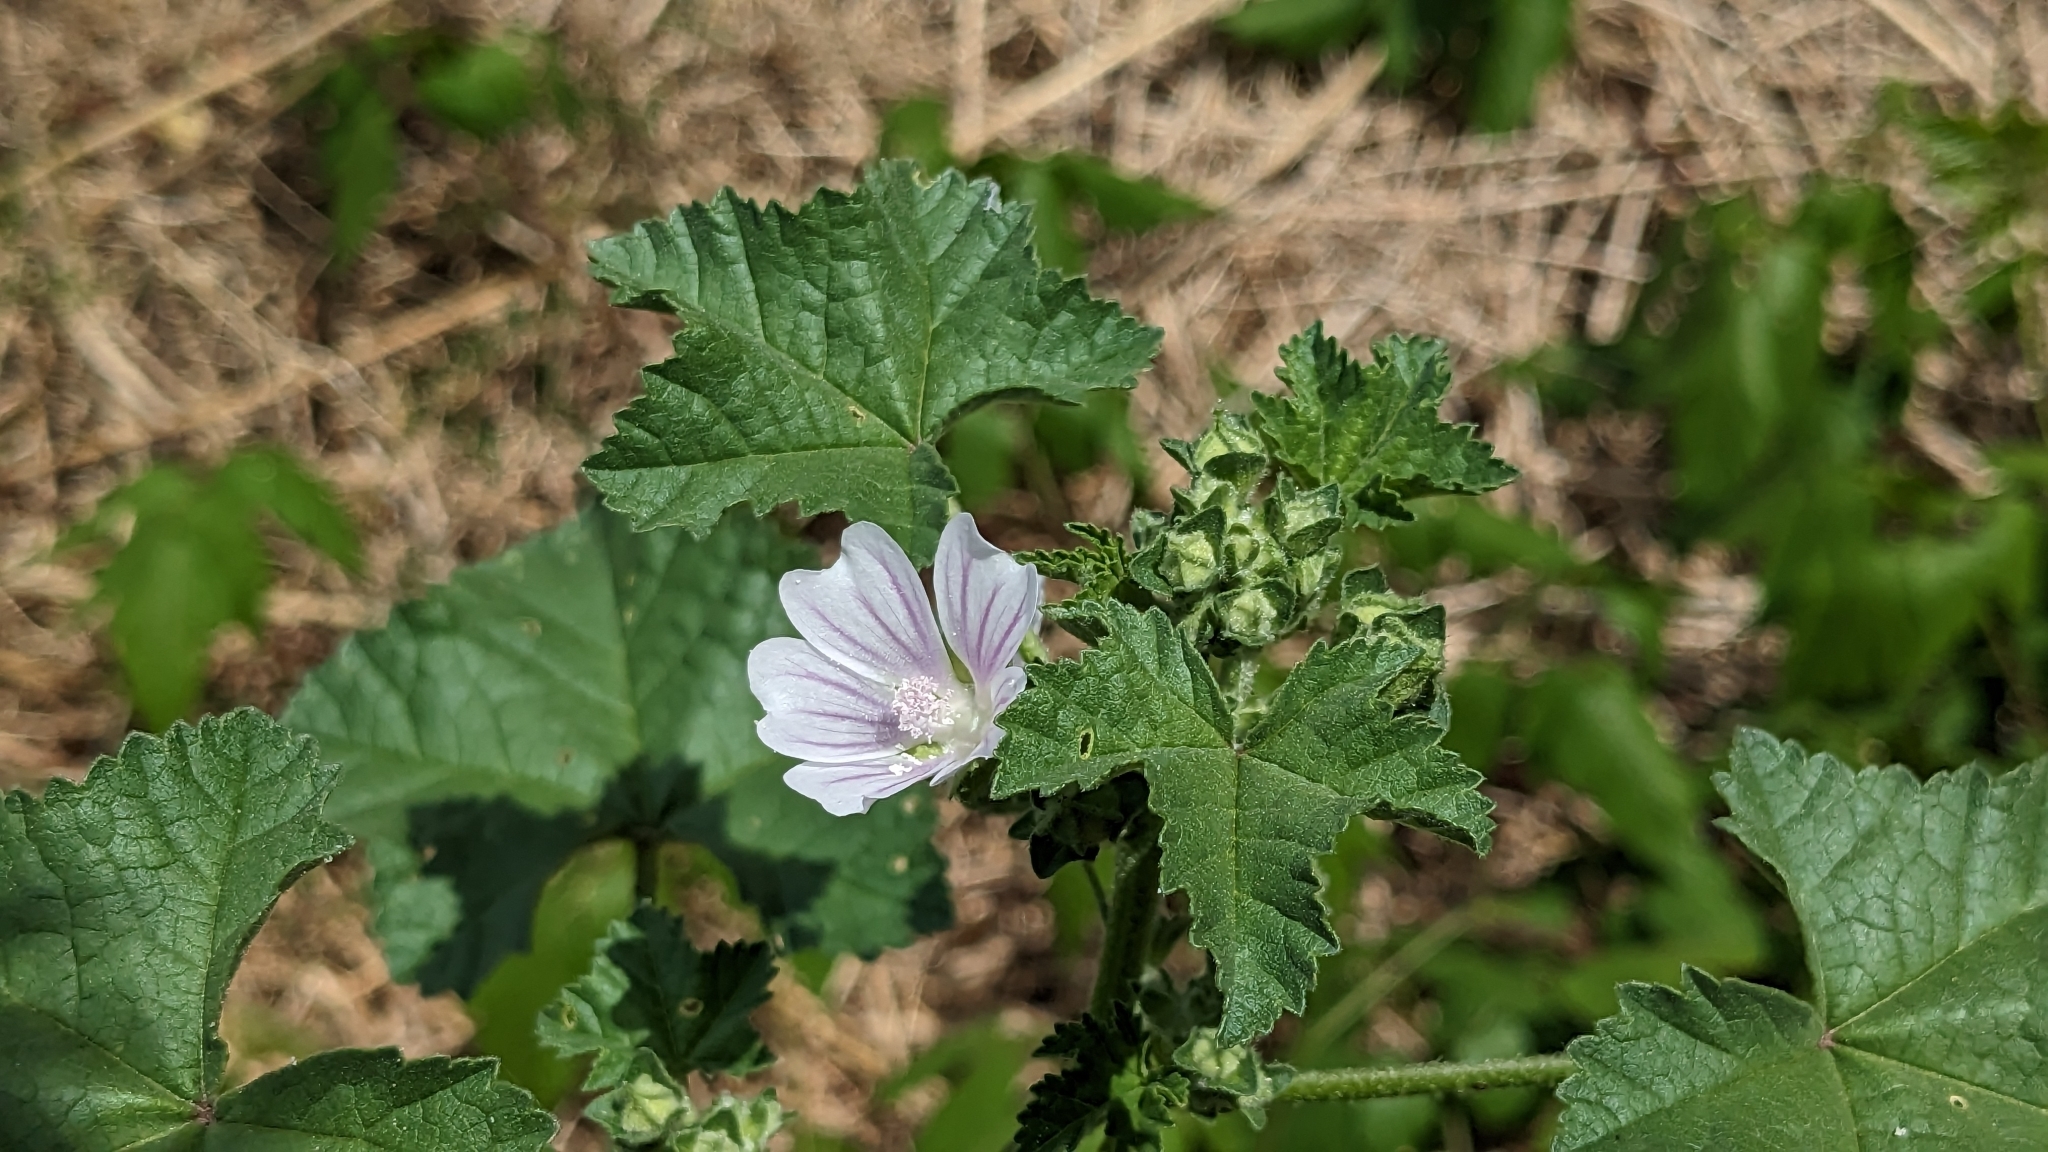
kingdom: Plantae
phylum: Tracheophyta
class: Magnoliopsida
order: Malvales
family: Malvaceae
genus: Malva
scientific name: Malva multiflora
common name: Cheeseweed
